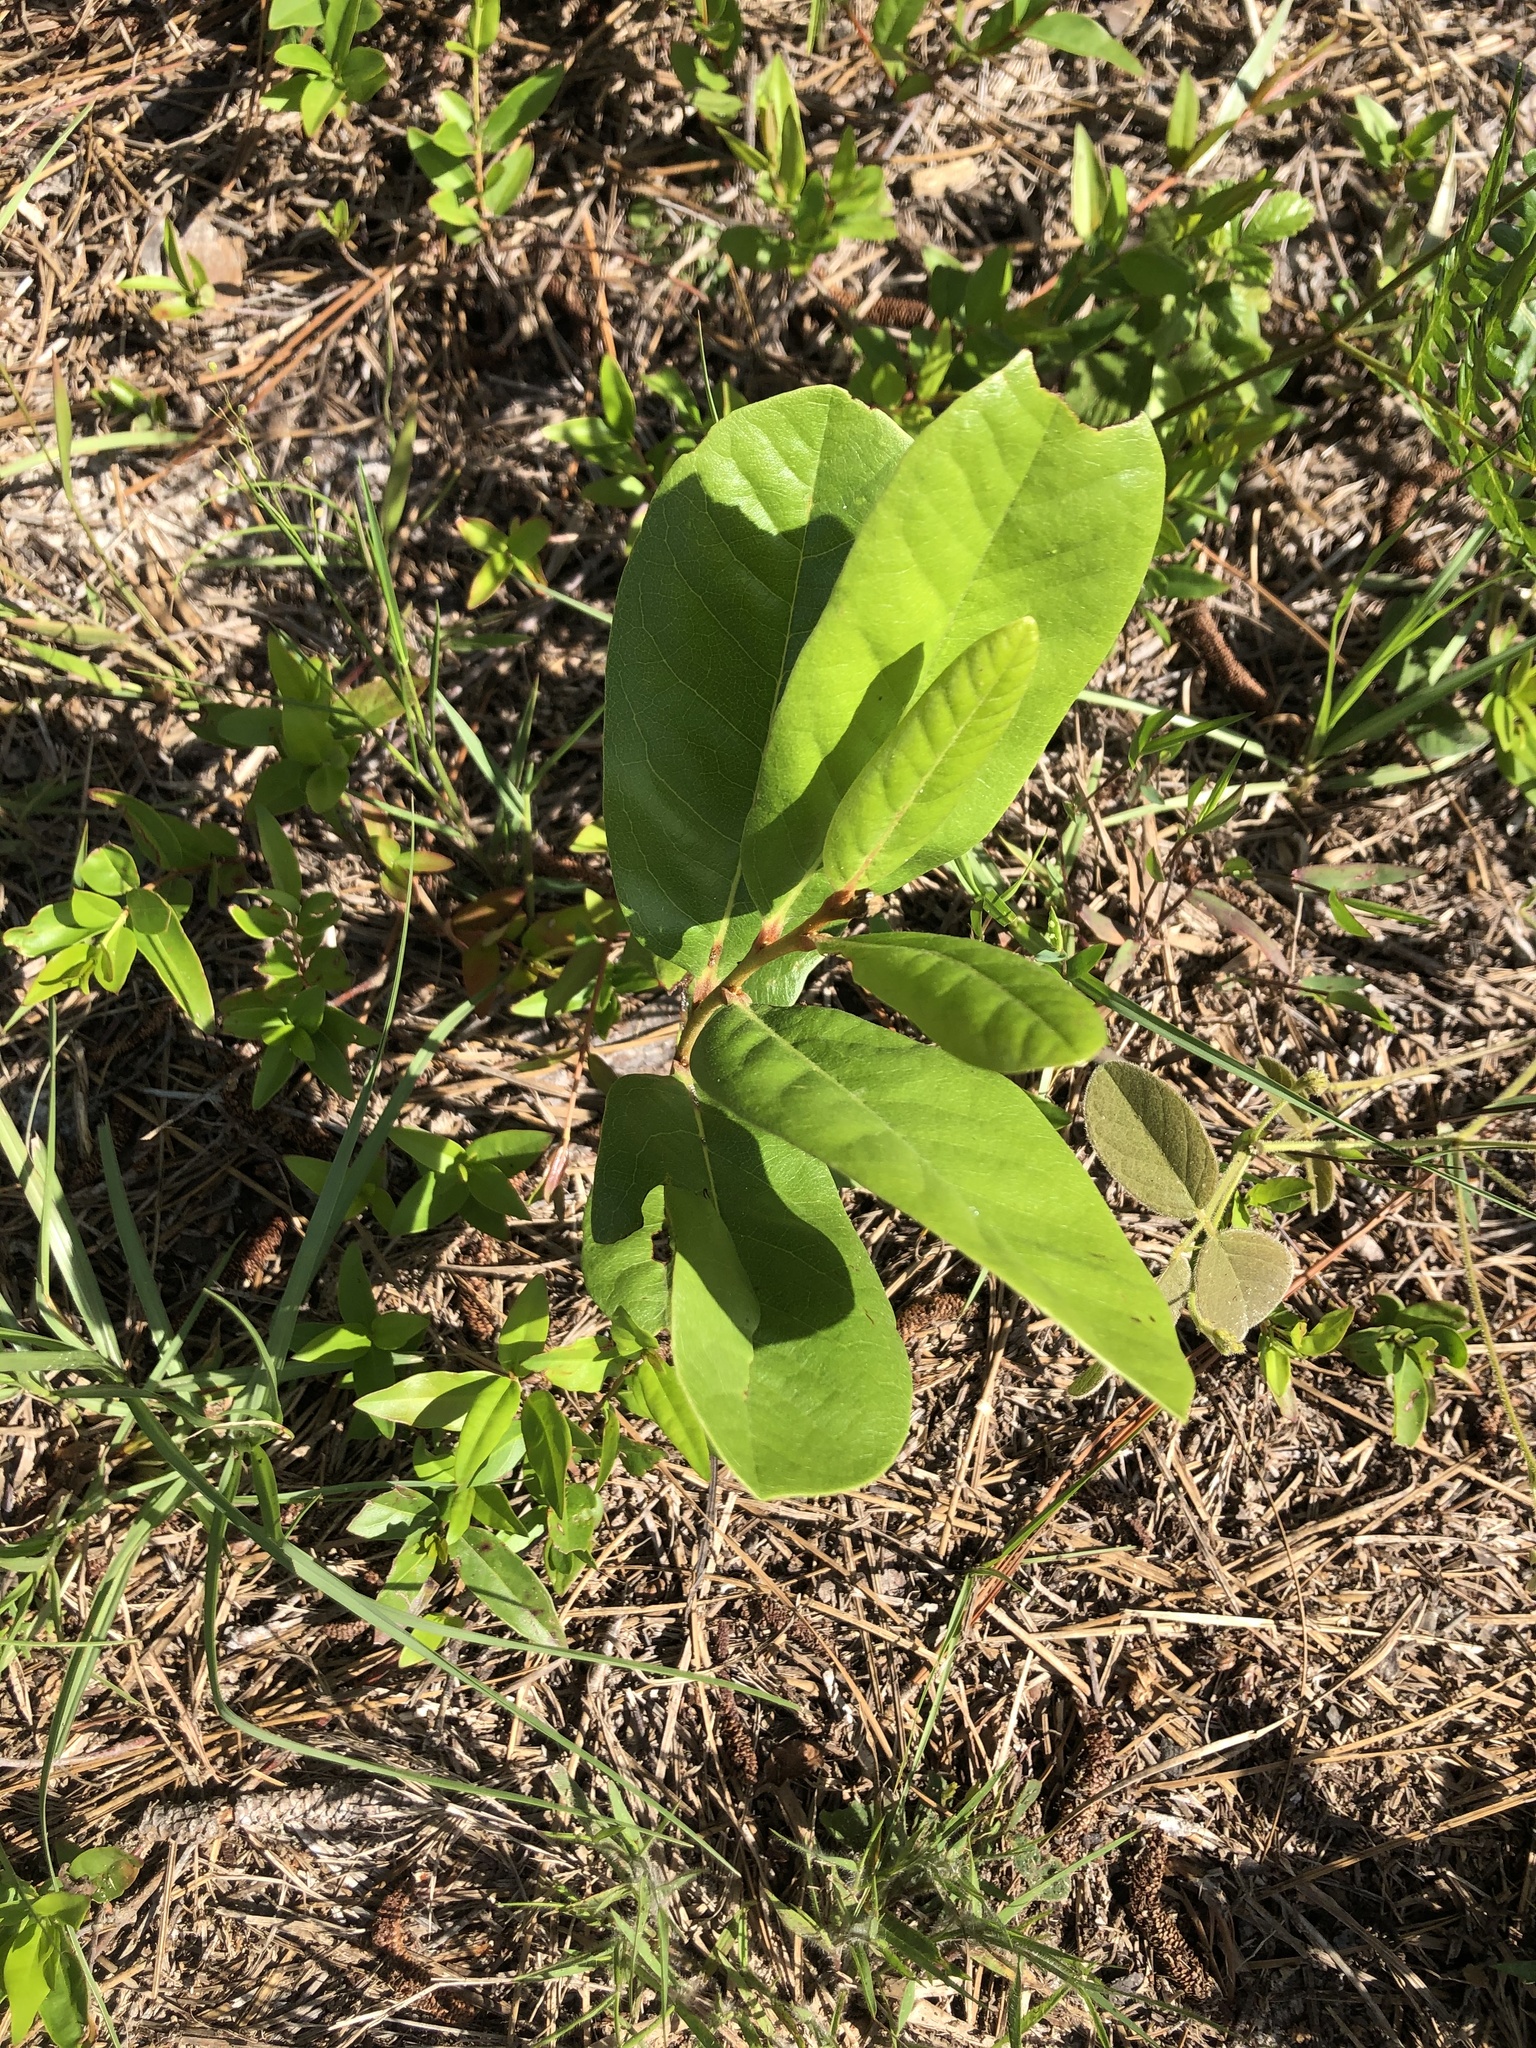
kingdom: Plantae
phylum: Tracheophyta
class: Magnoliopsida
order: Magnoliales
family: Annonaceae
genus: Asimina
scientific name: Asimina parviflora
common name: Dwarf pawpaw
